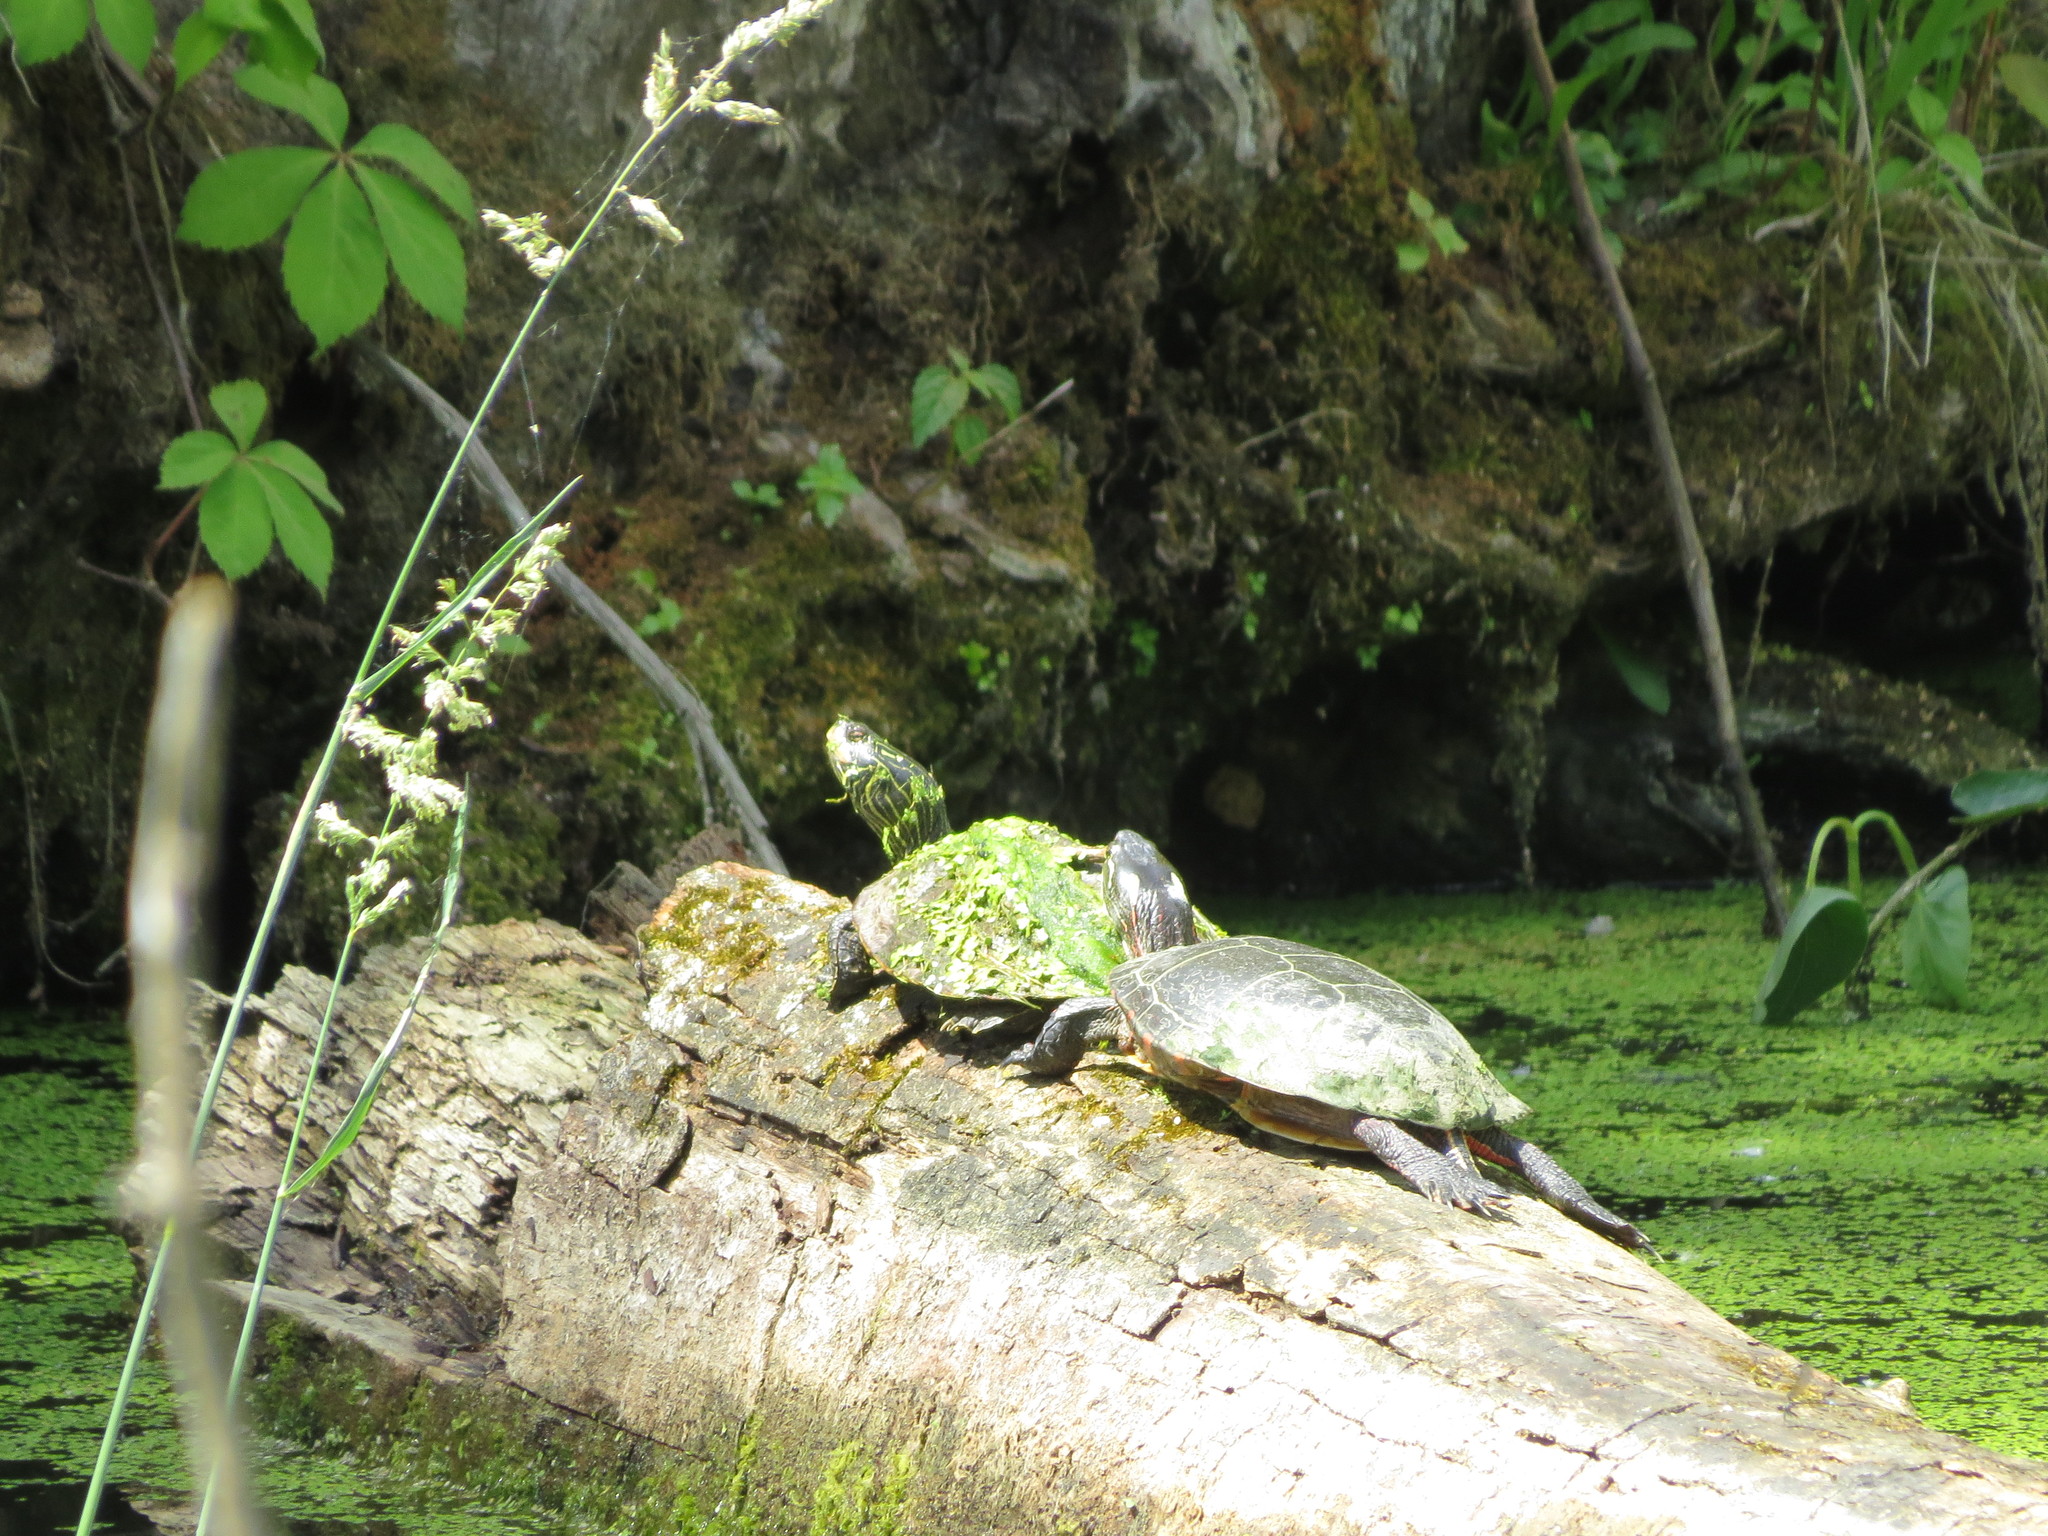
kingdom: Animalia
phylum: Chordata
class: Testudines
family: Emydidae
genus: Graptemys
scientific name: Graptemys geographica
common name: Common map turtle
